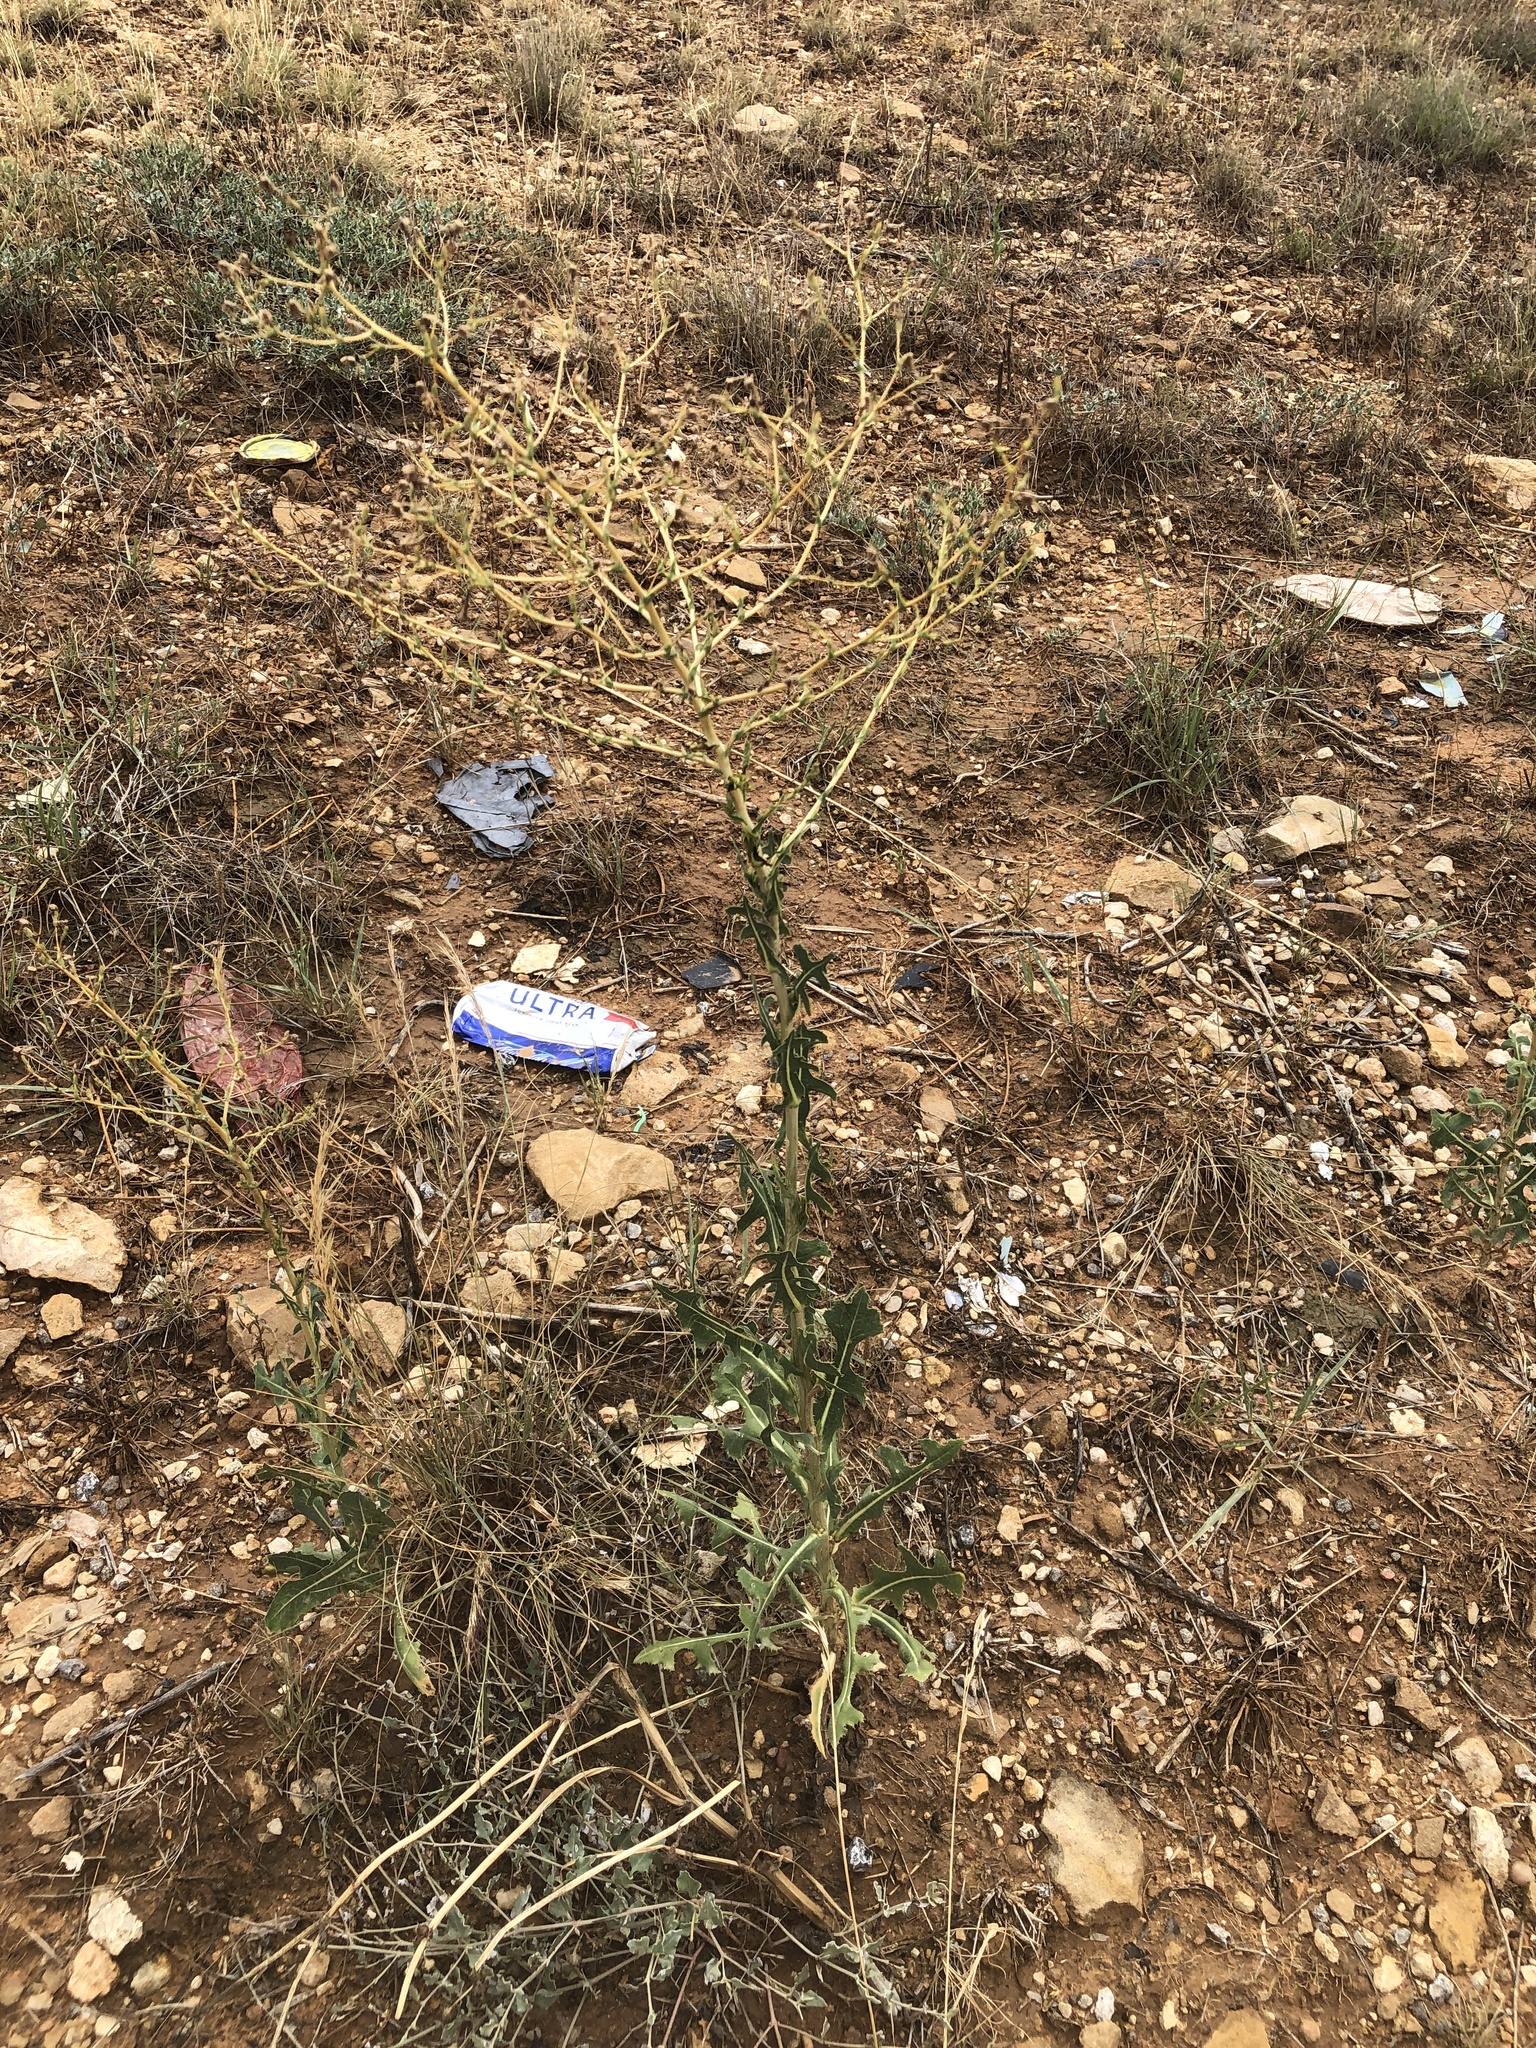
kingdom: Plantae
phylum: Tracheophyta
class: Magnoliopsida
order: Asterales
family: Asteraceae
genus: Lactuca
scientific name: Lactuca serriola
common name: Prickly lettuce
